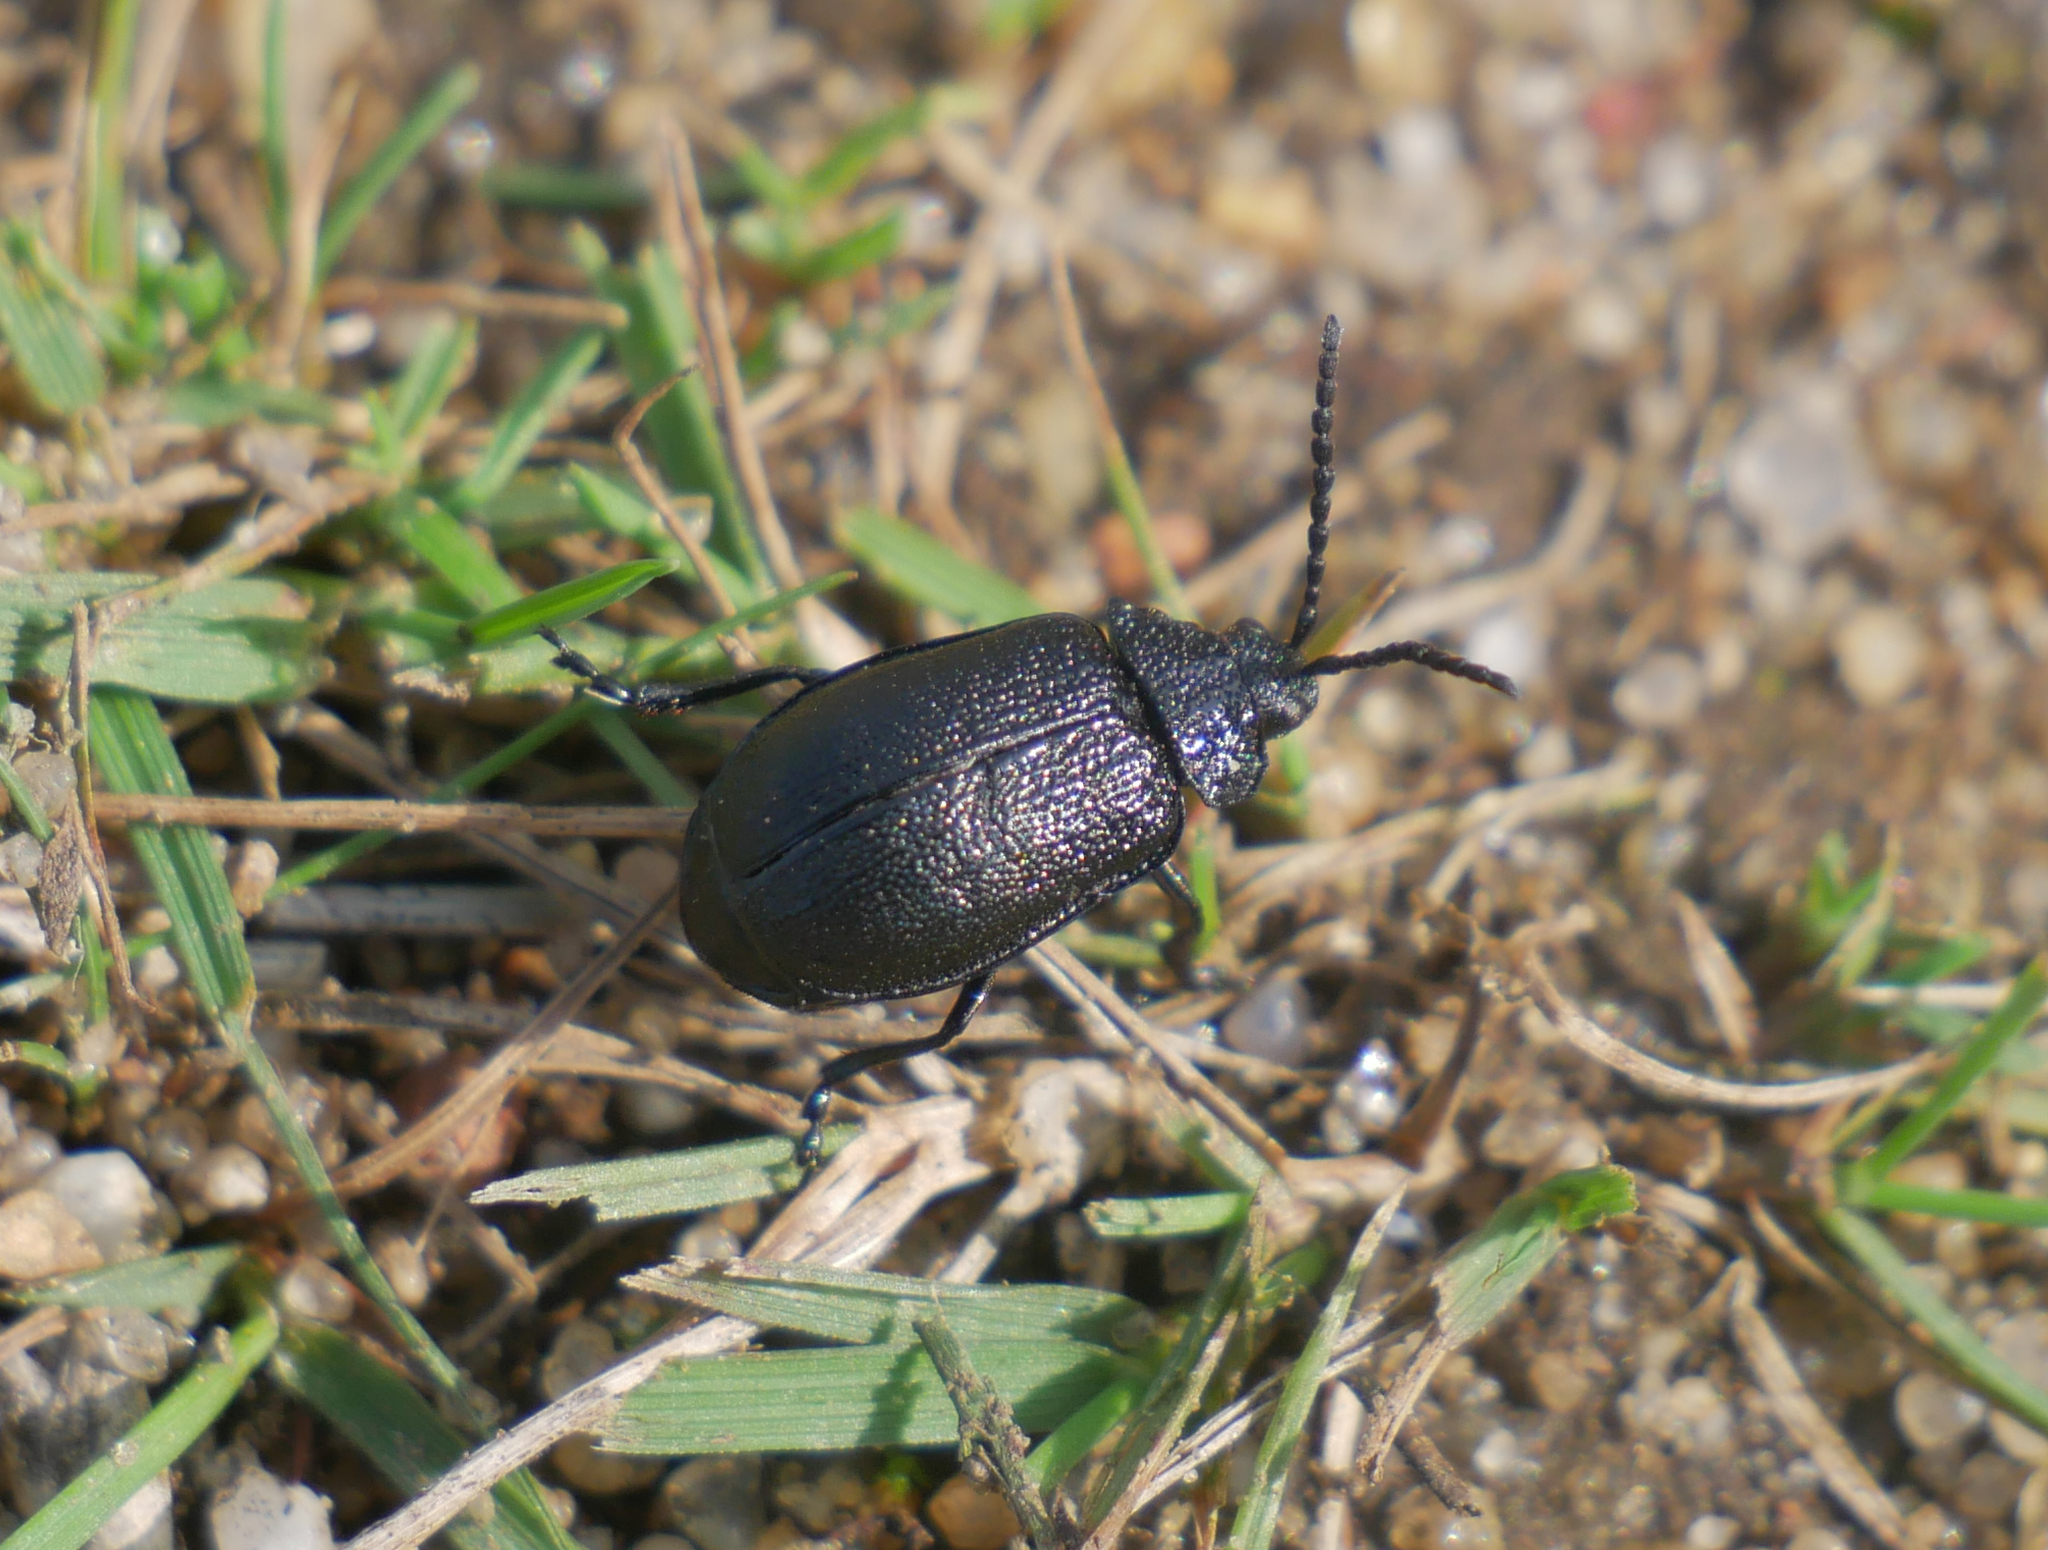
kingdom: Animalia
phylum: Arthropoda
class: Insecta
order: Coleoptera
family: Chrysomelidae
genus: Galeruca
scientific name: Galeruca tanaceti
